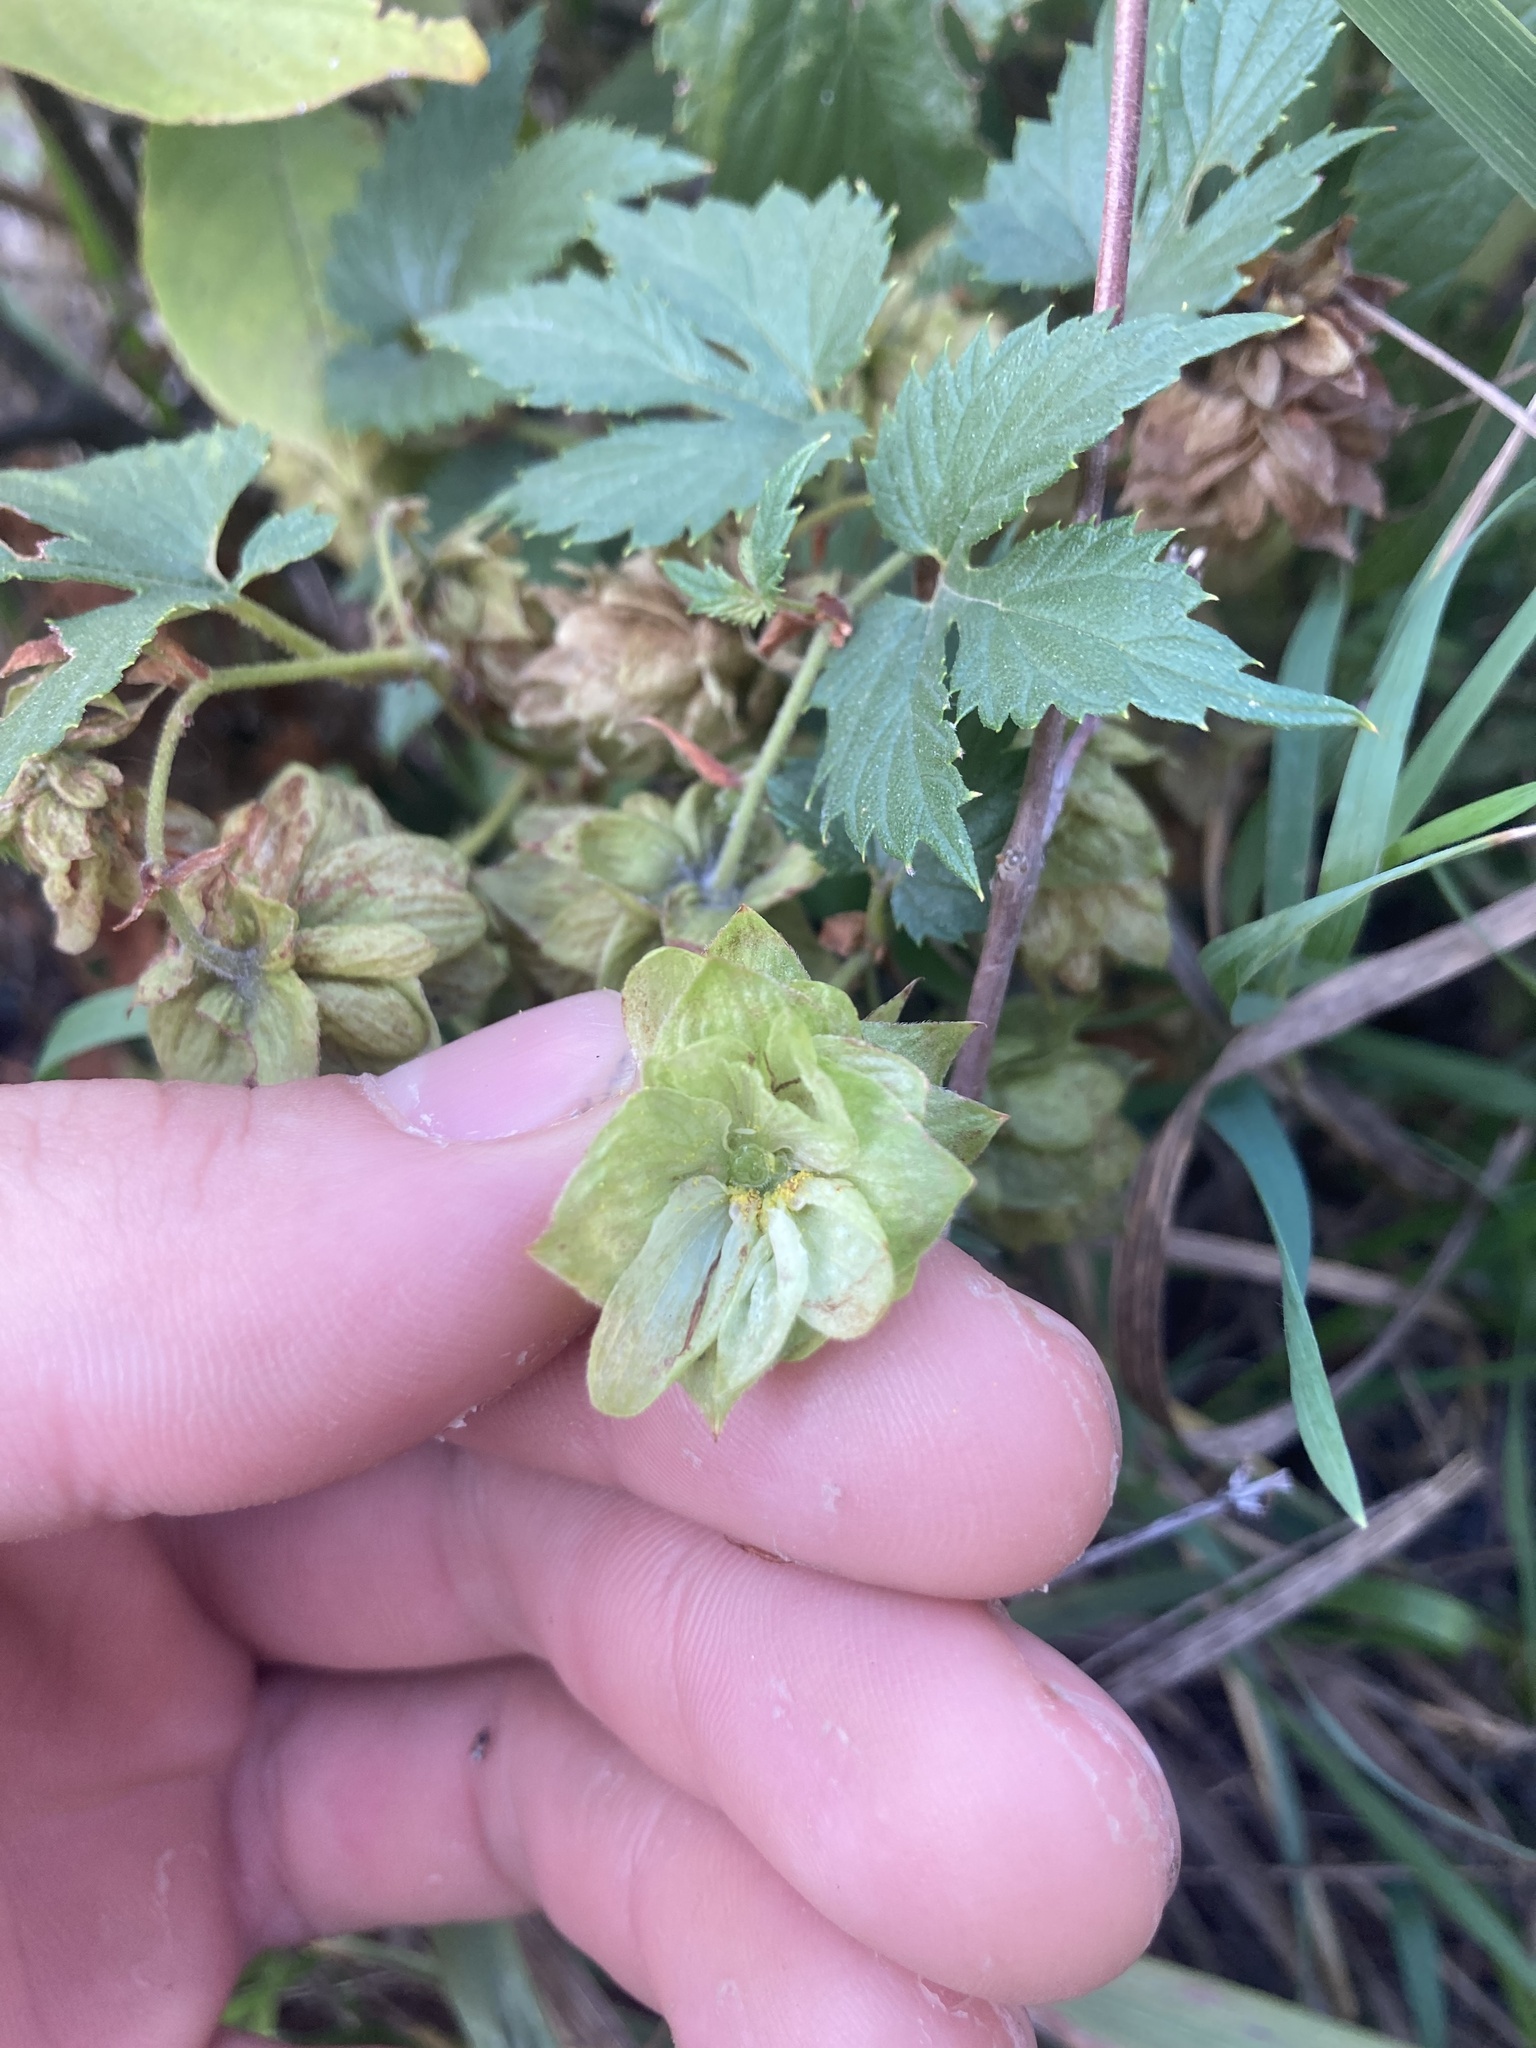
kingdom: Plantae
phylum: Tracheophyta
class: Magnoliopsida
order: Rosales
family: Cannabaceae
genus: Humulus
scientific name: Humulus neomexicanus
